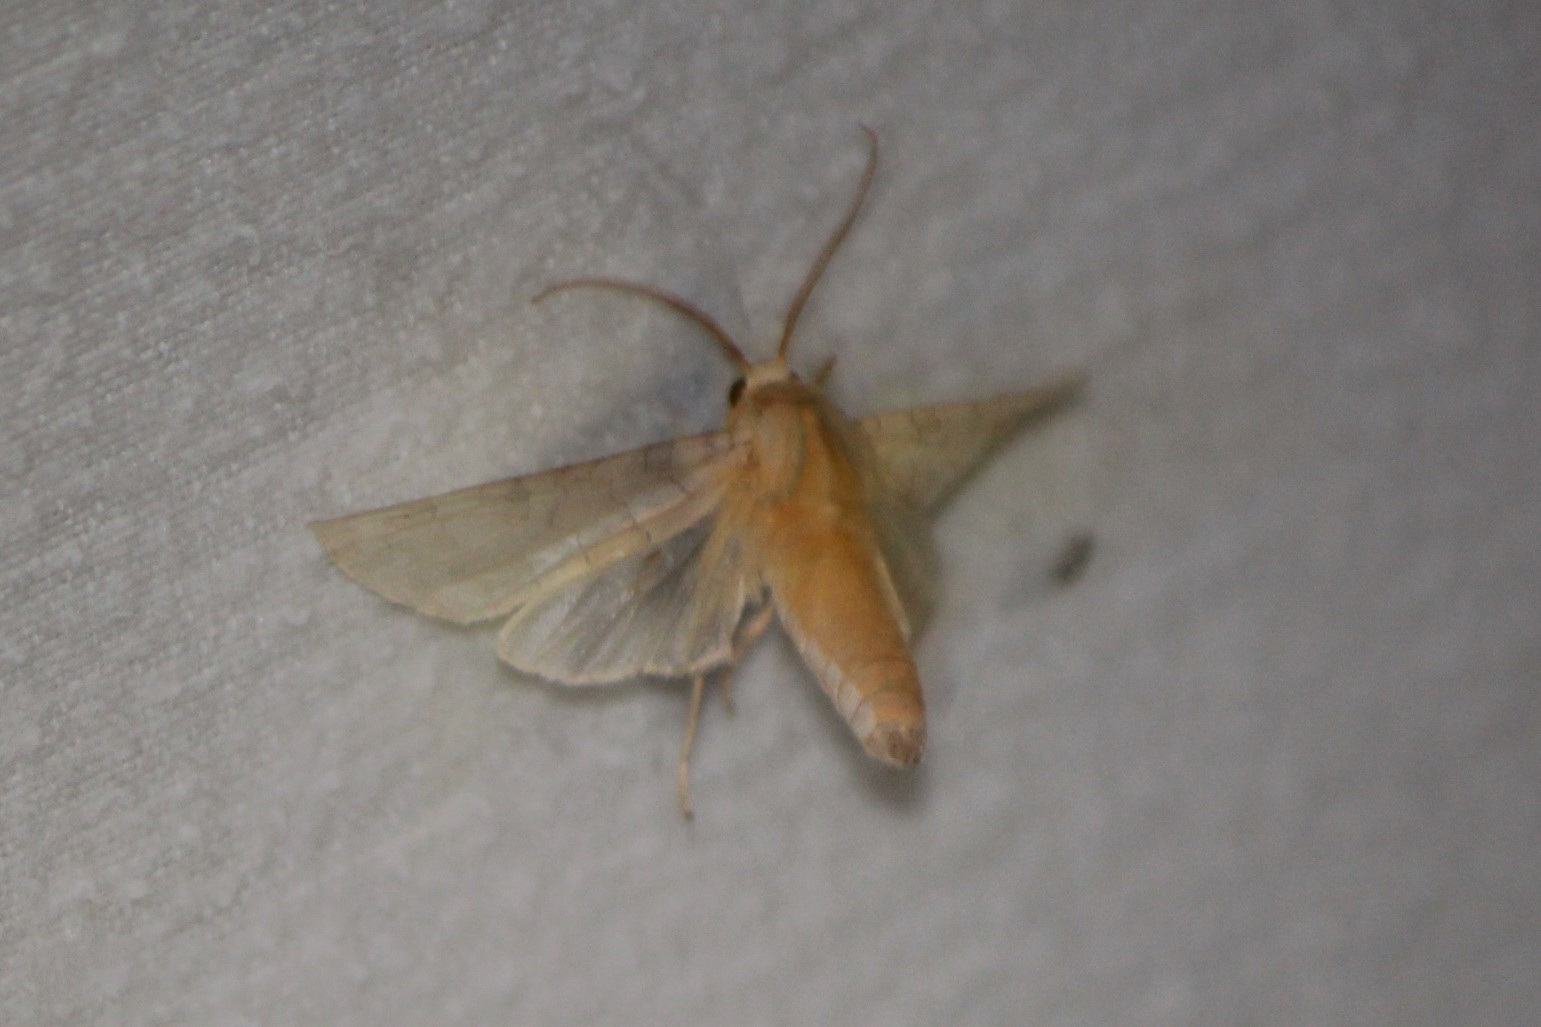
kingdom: Animalia
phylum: Arthropoda
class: Insecta
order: Lepidoptera
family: Erebidae
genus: Halysidota
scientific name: Halysidota
